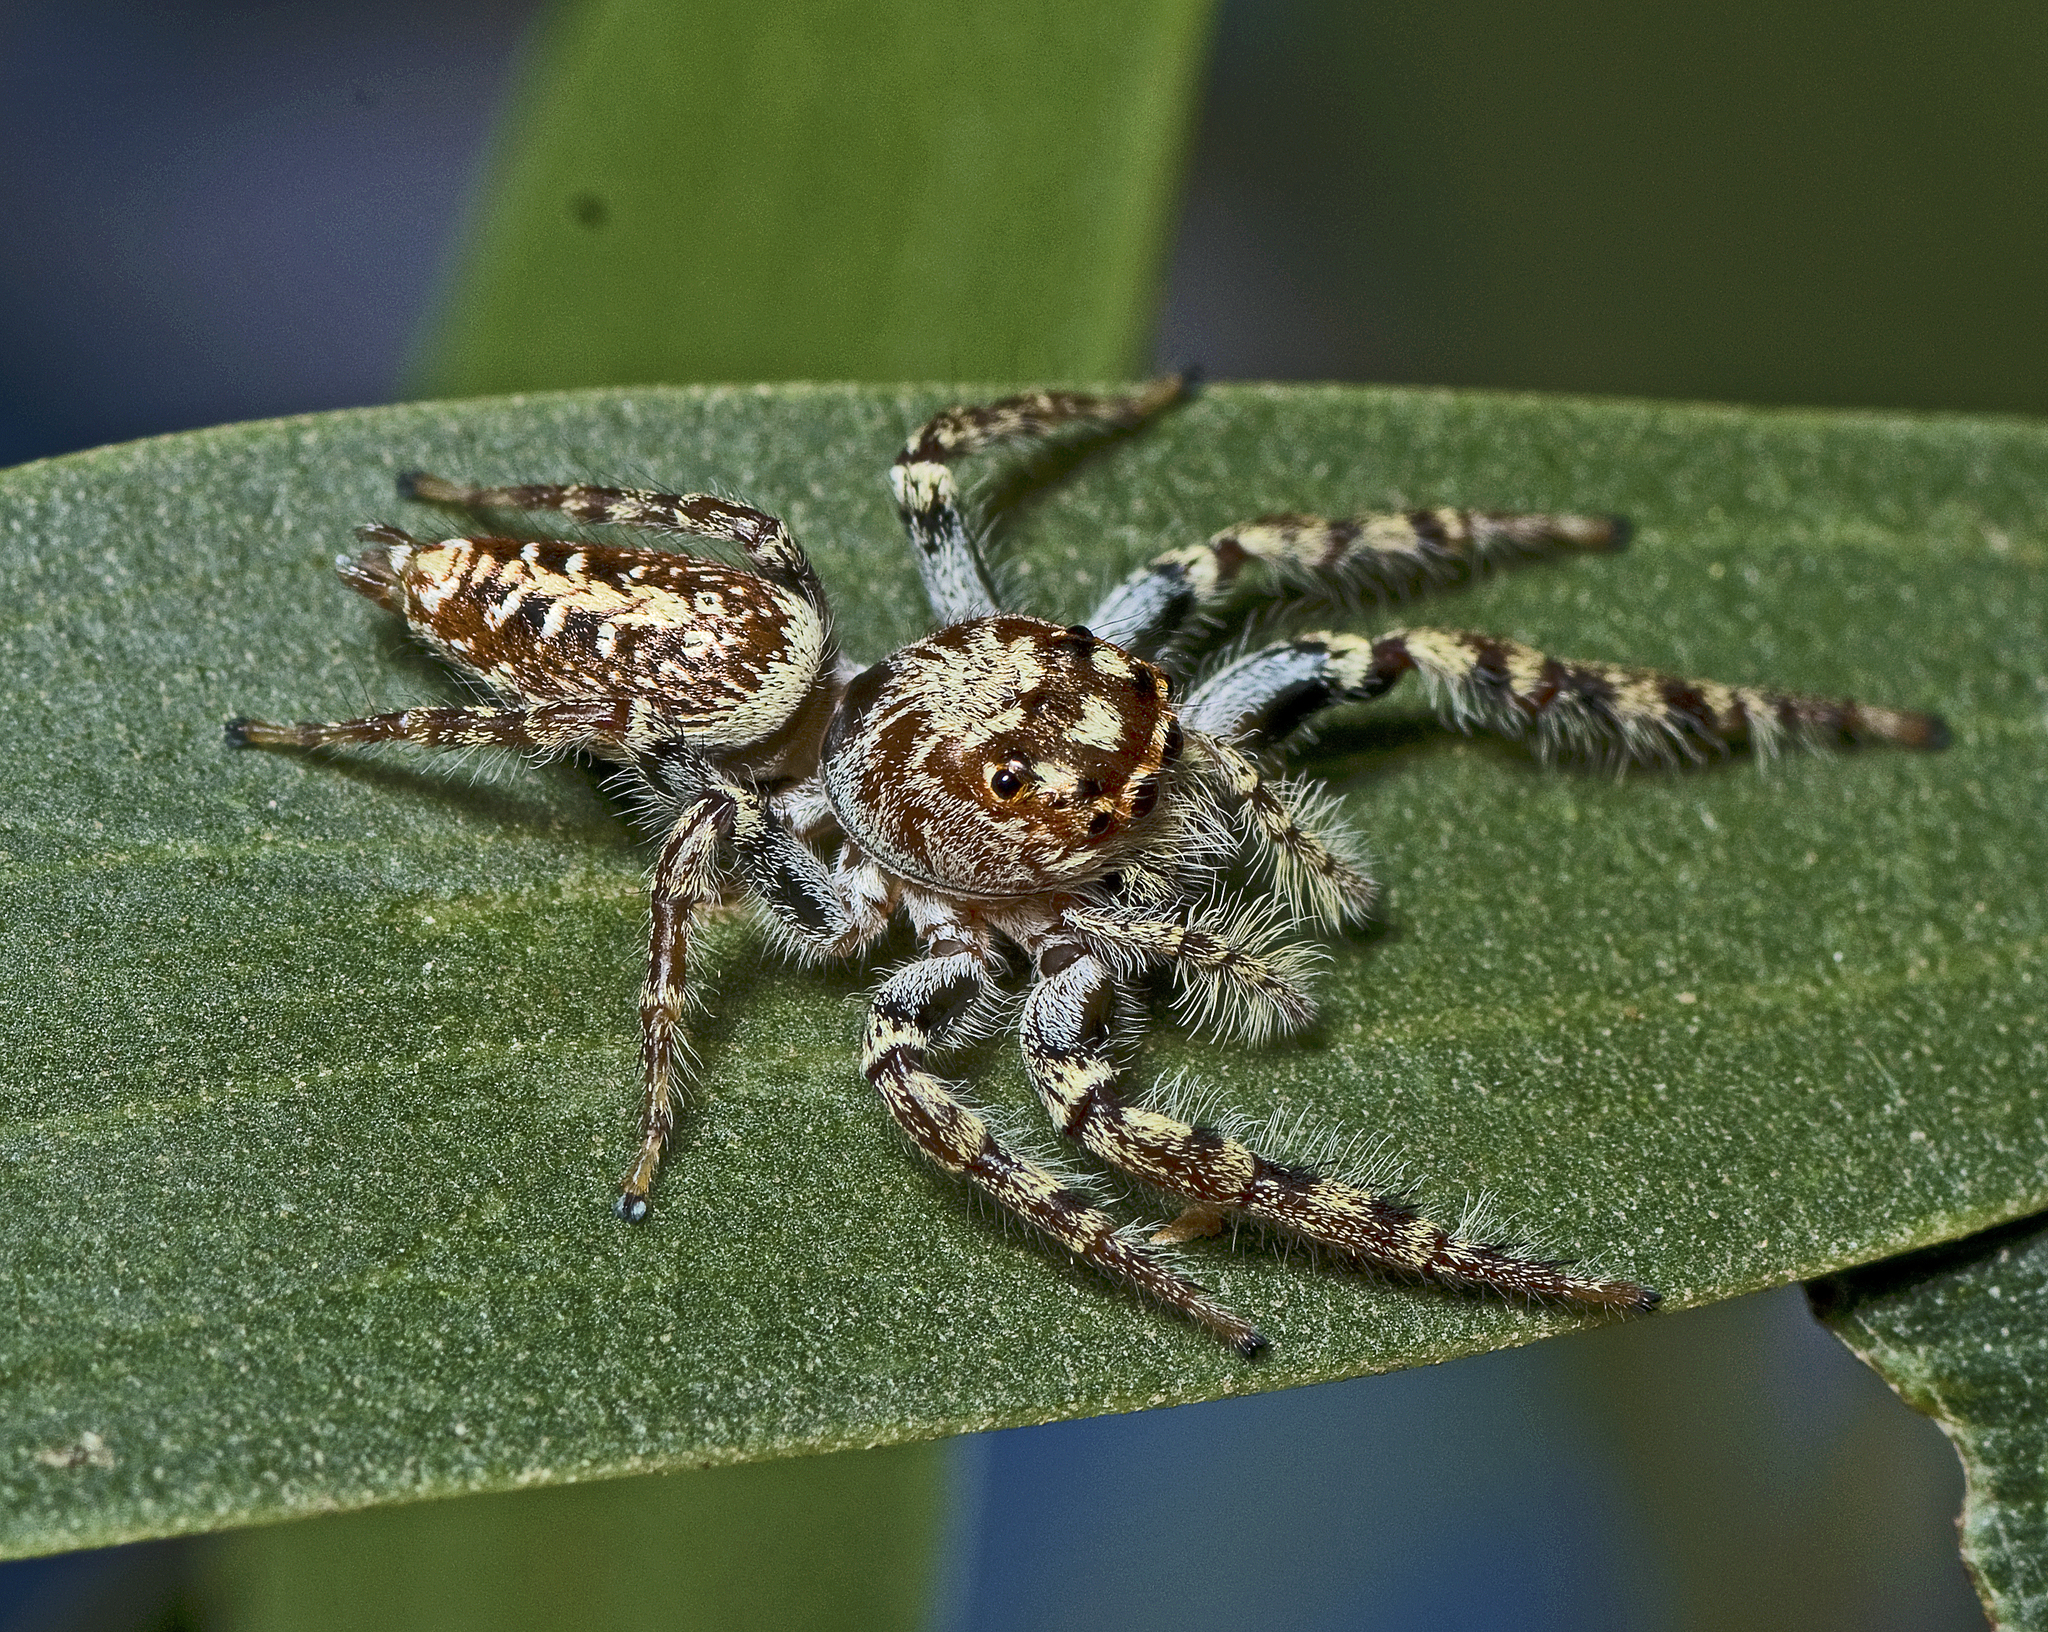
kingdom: Animalia
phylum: Arthropoda
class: Arachnida
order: Araneae
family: Salticidae
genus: Opisthoncus
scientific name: Opisthoncus quadratarius
